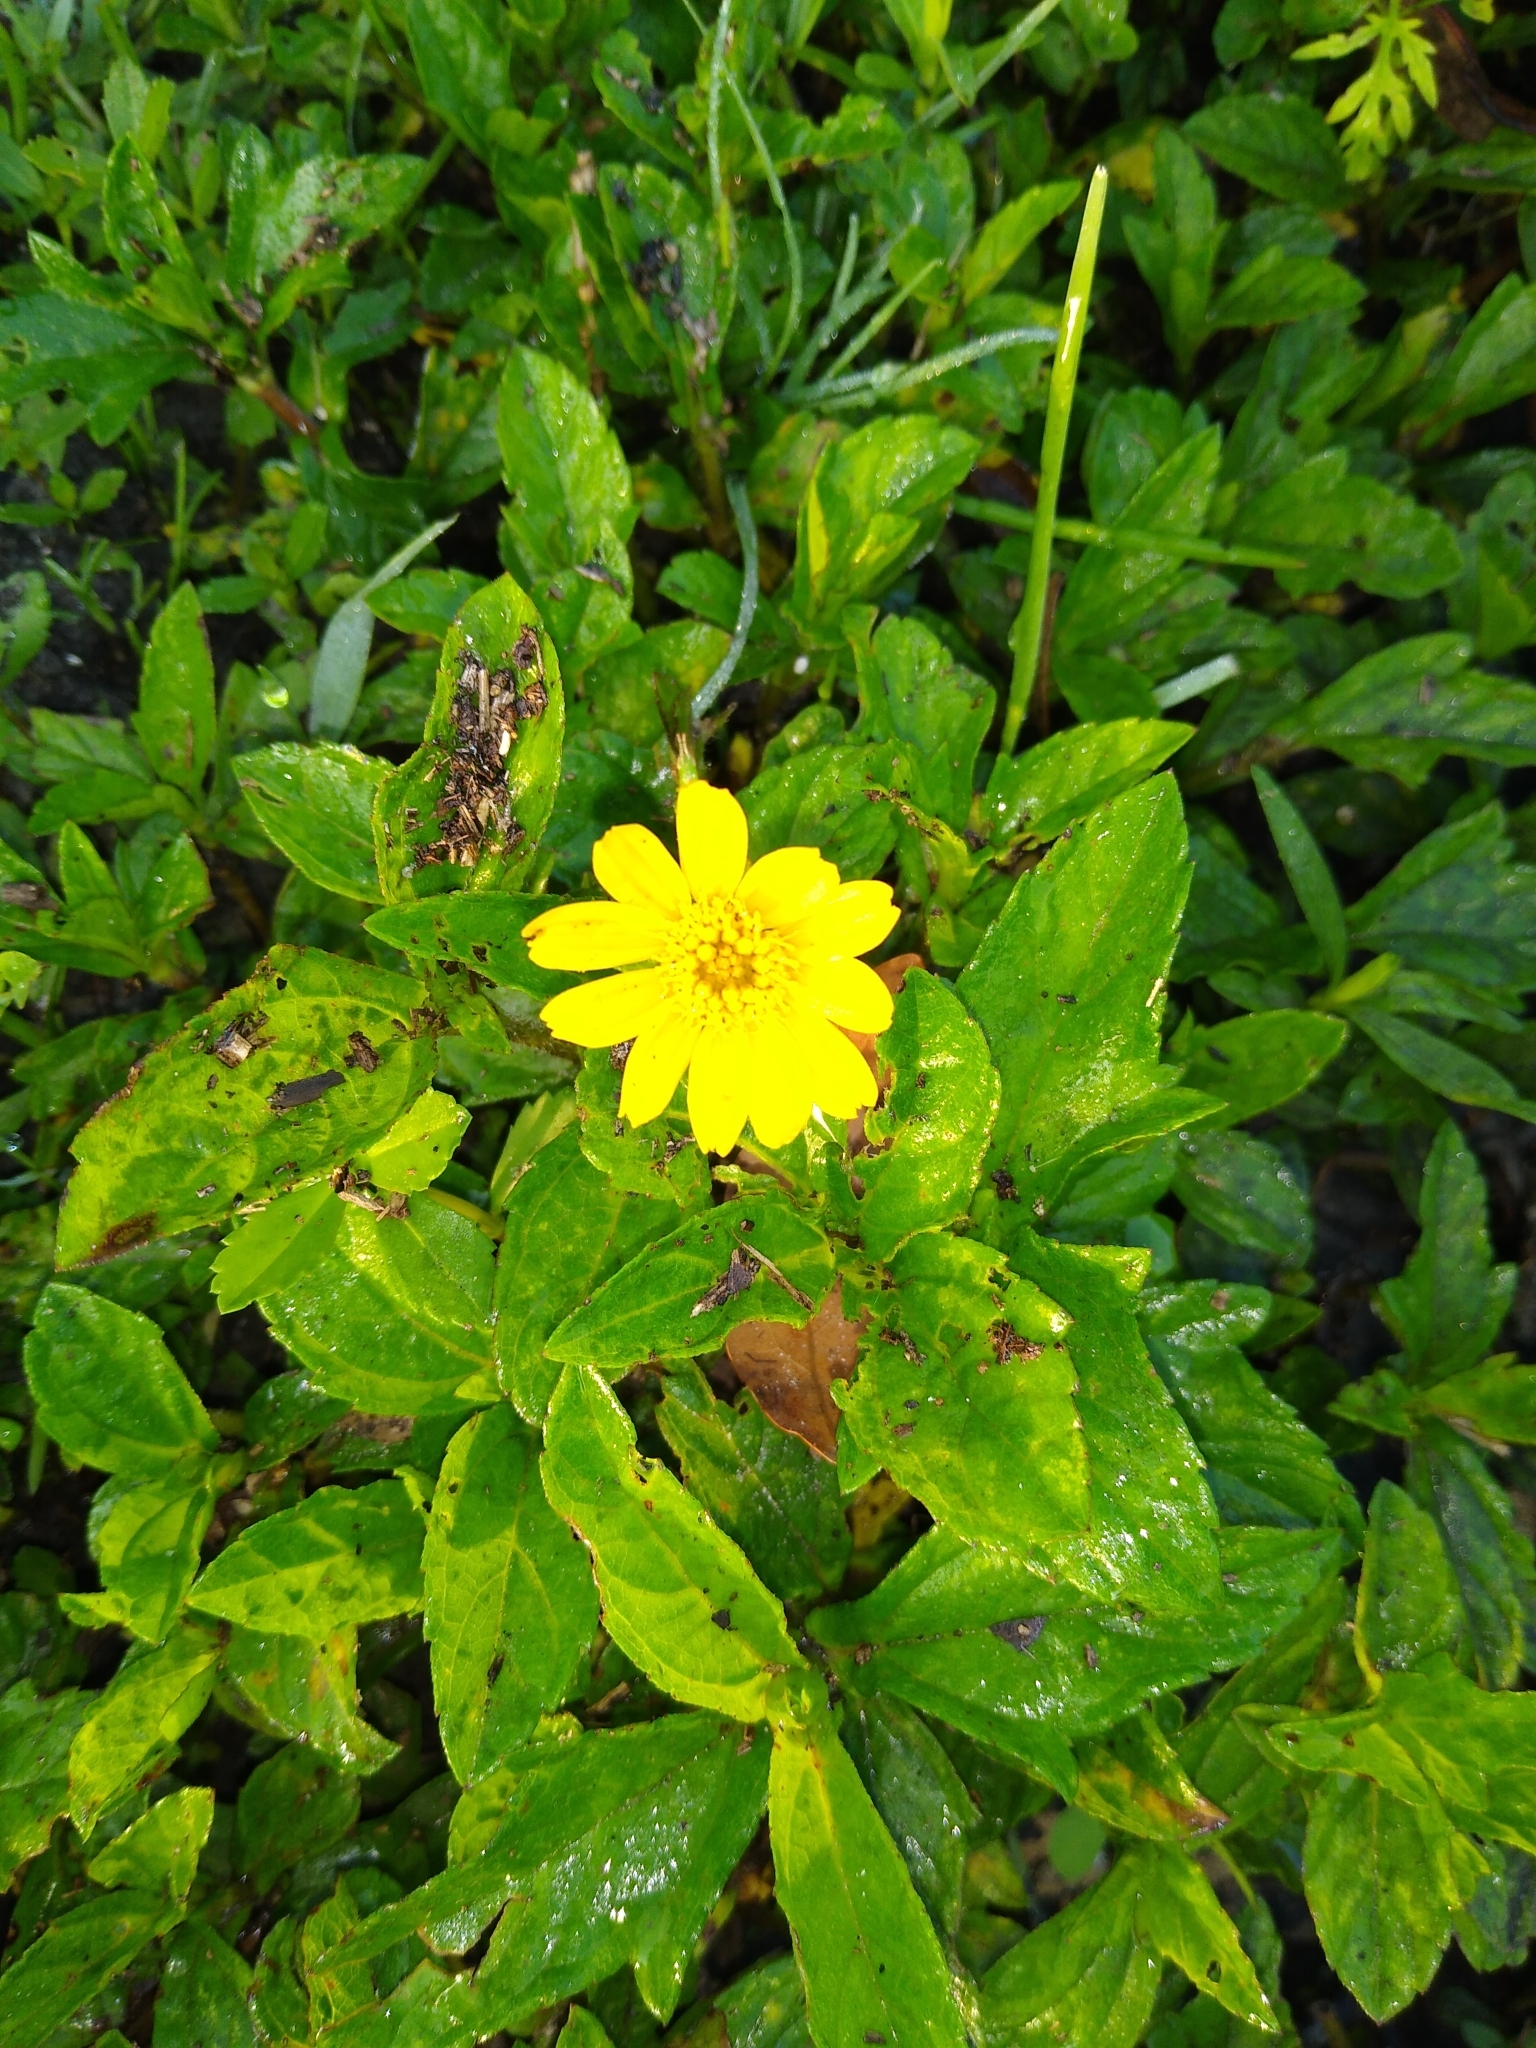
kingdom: Plantae
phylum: Tracheophyta
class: Magnoliopsida
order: Asterales
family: Asteraceae
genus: Sphagneticola
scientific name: Sphagneticola trilobata
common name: Bay biscayne creeping-oxeye
